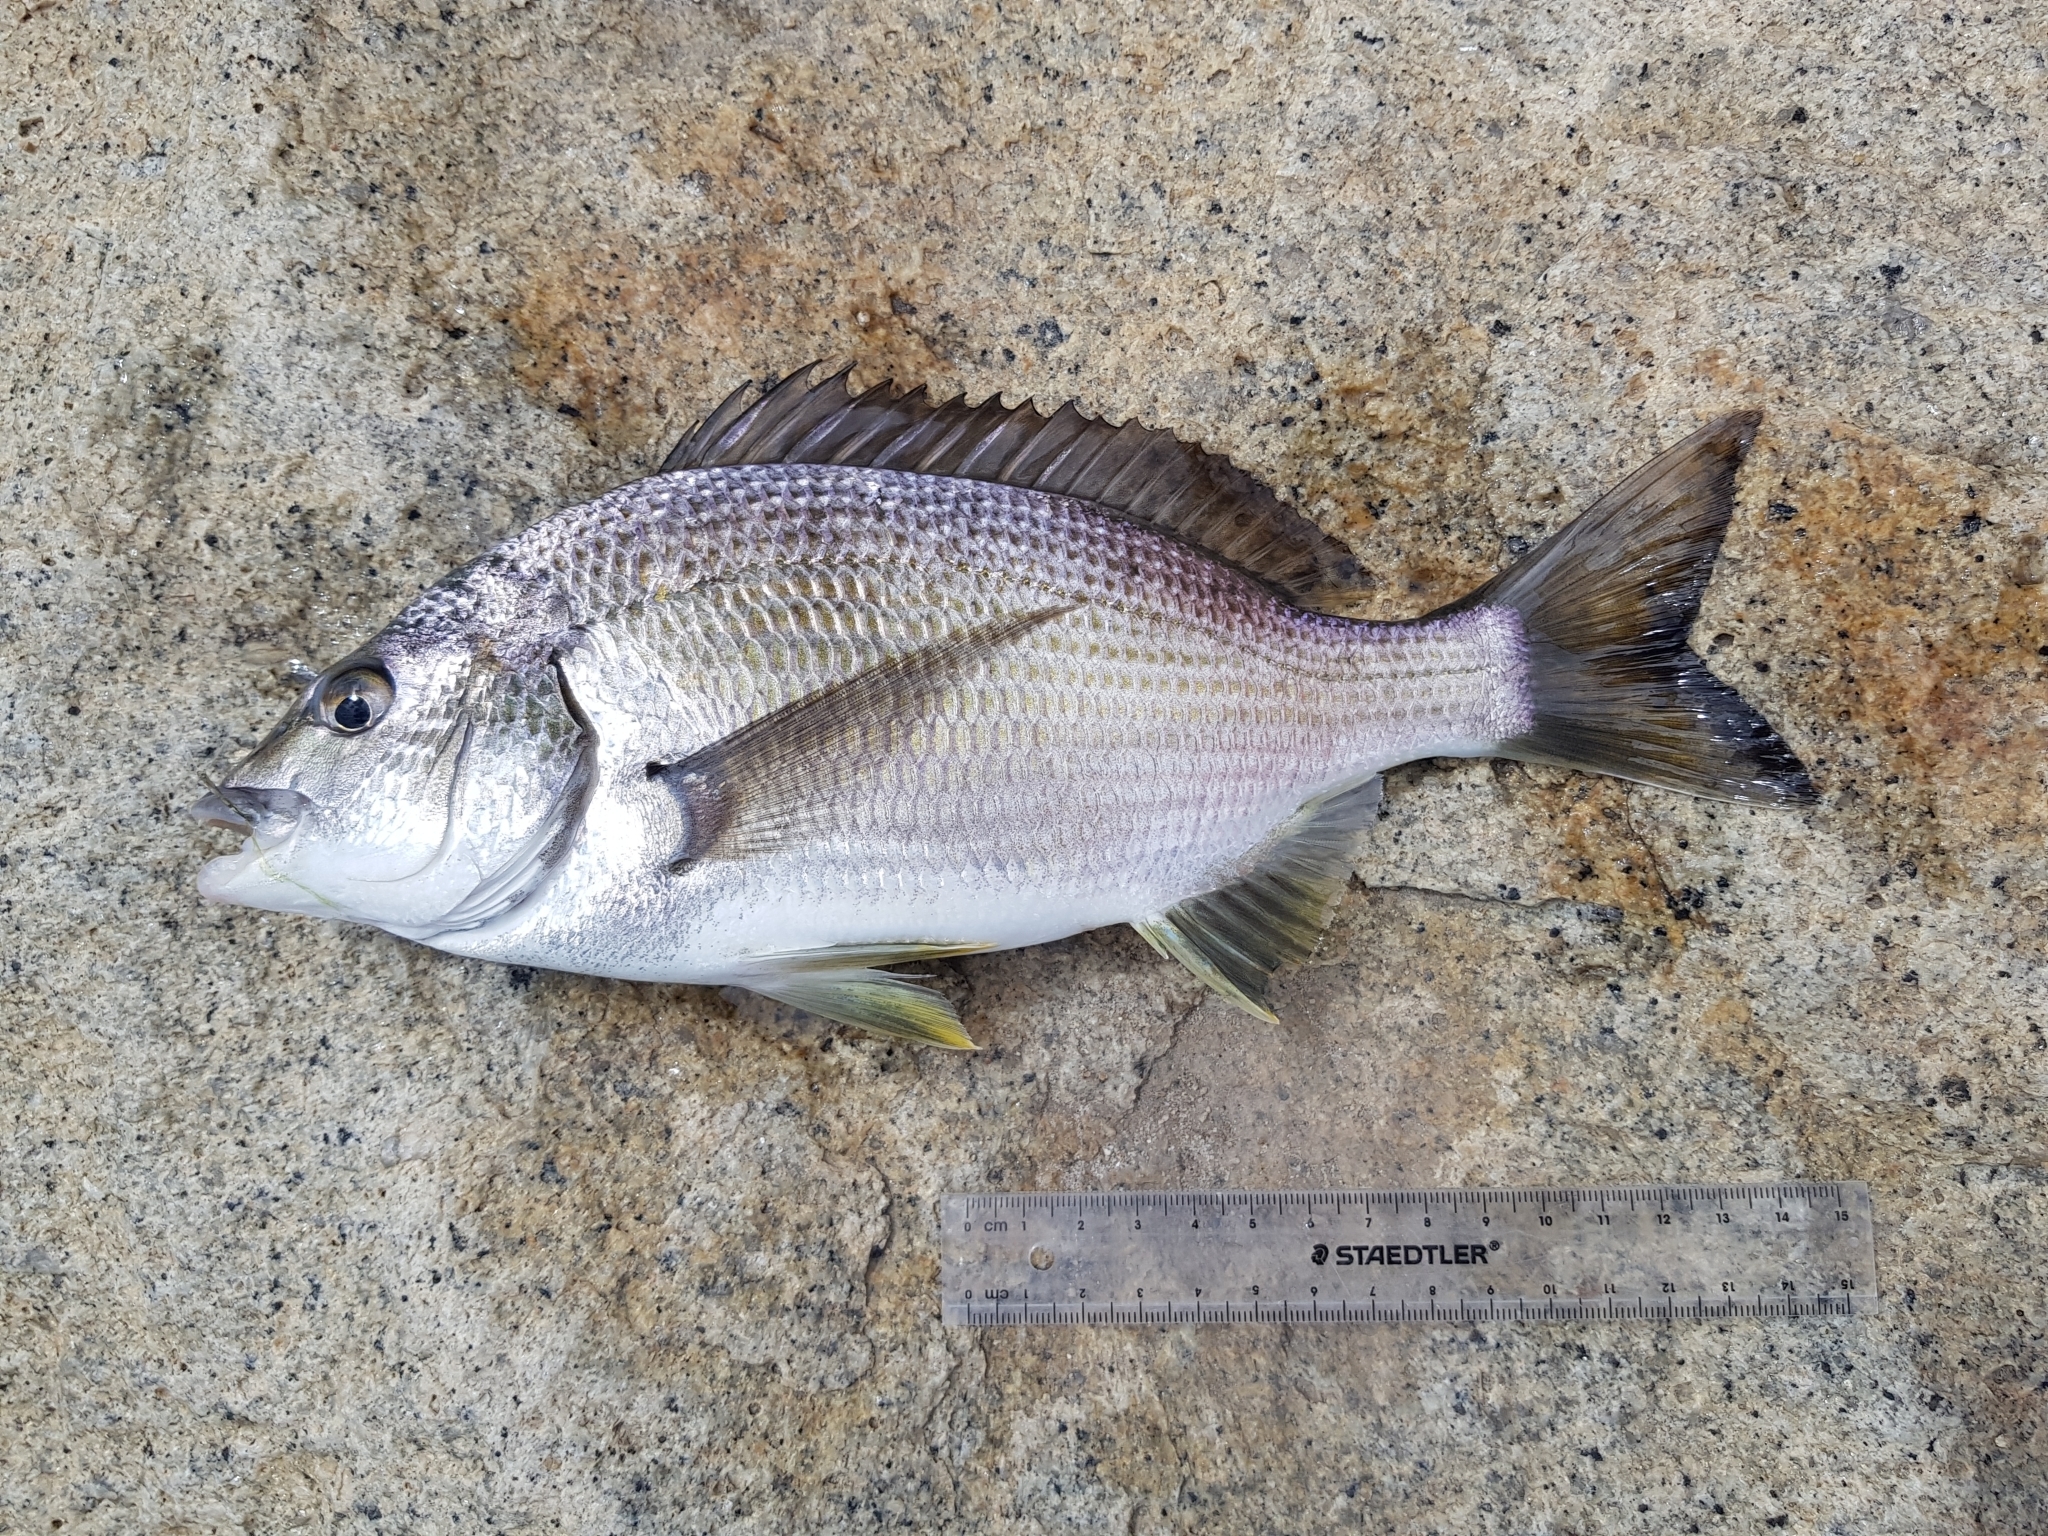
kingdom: Animalia
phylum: Chordata
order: Perciformes
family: Sparidae
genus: Acanthopagrus
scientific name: Acanthopagrus butcheri
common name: Black bream
